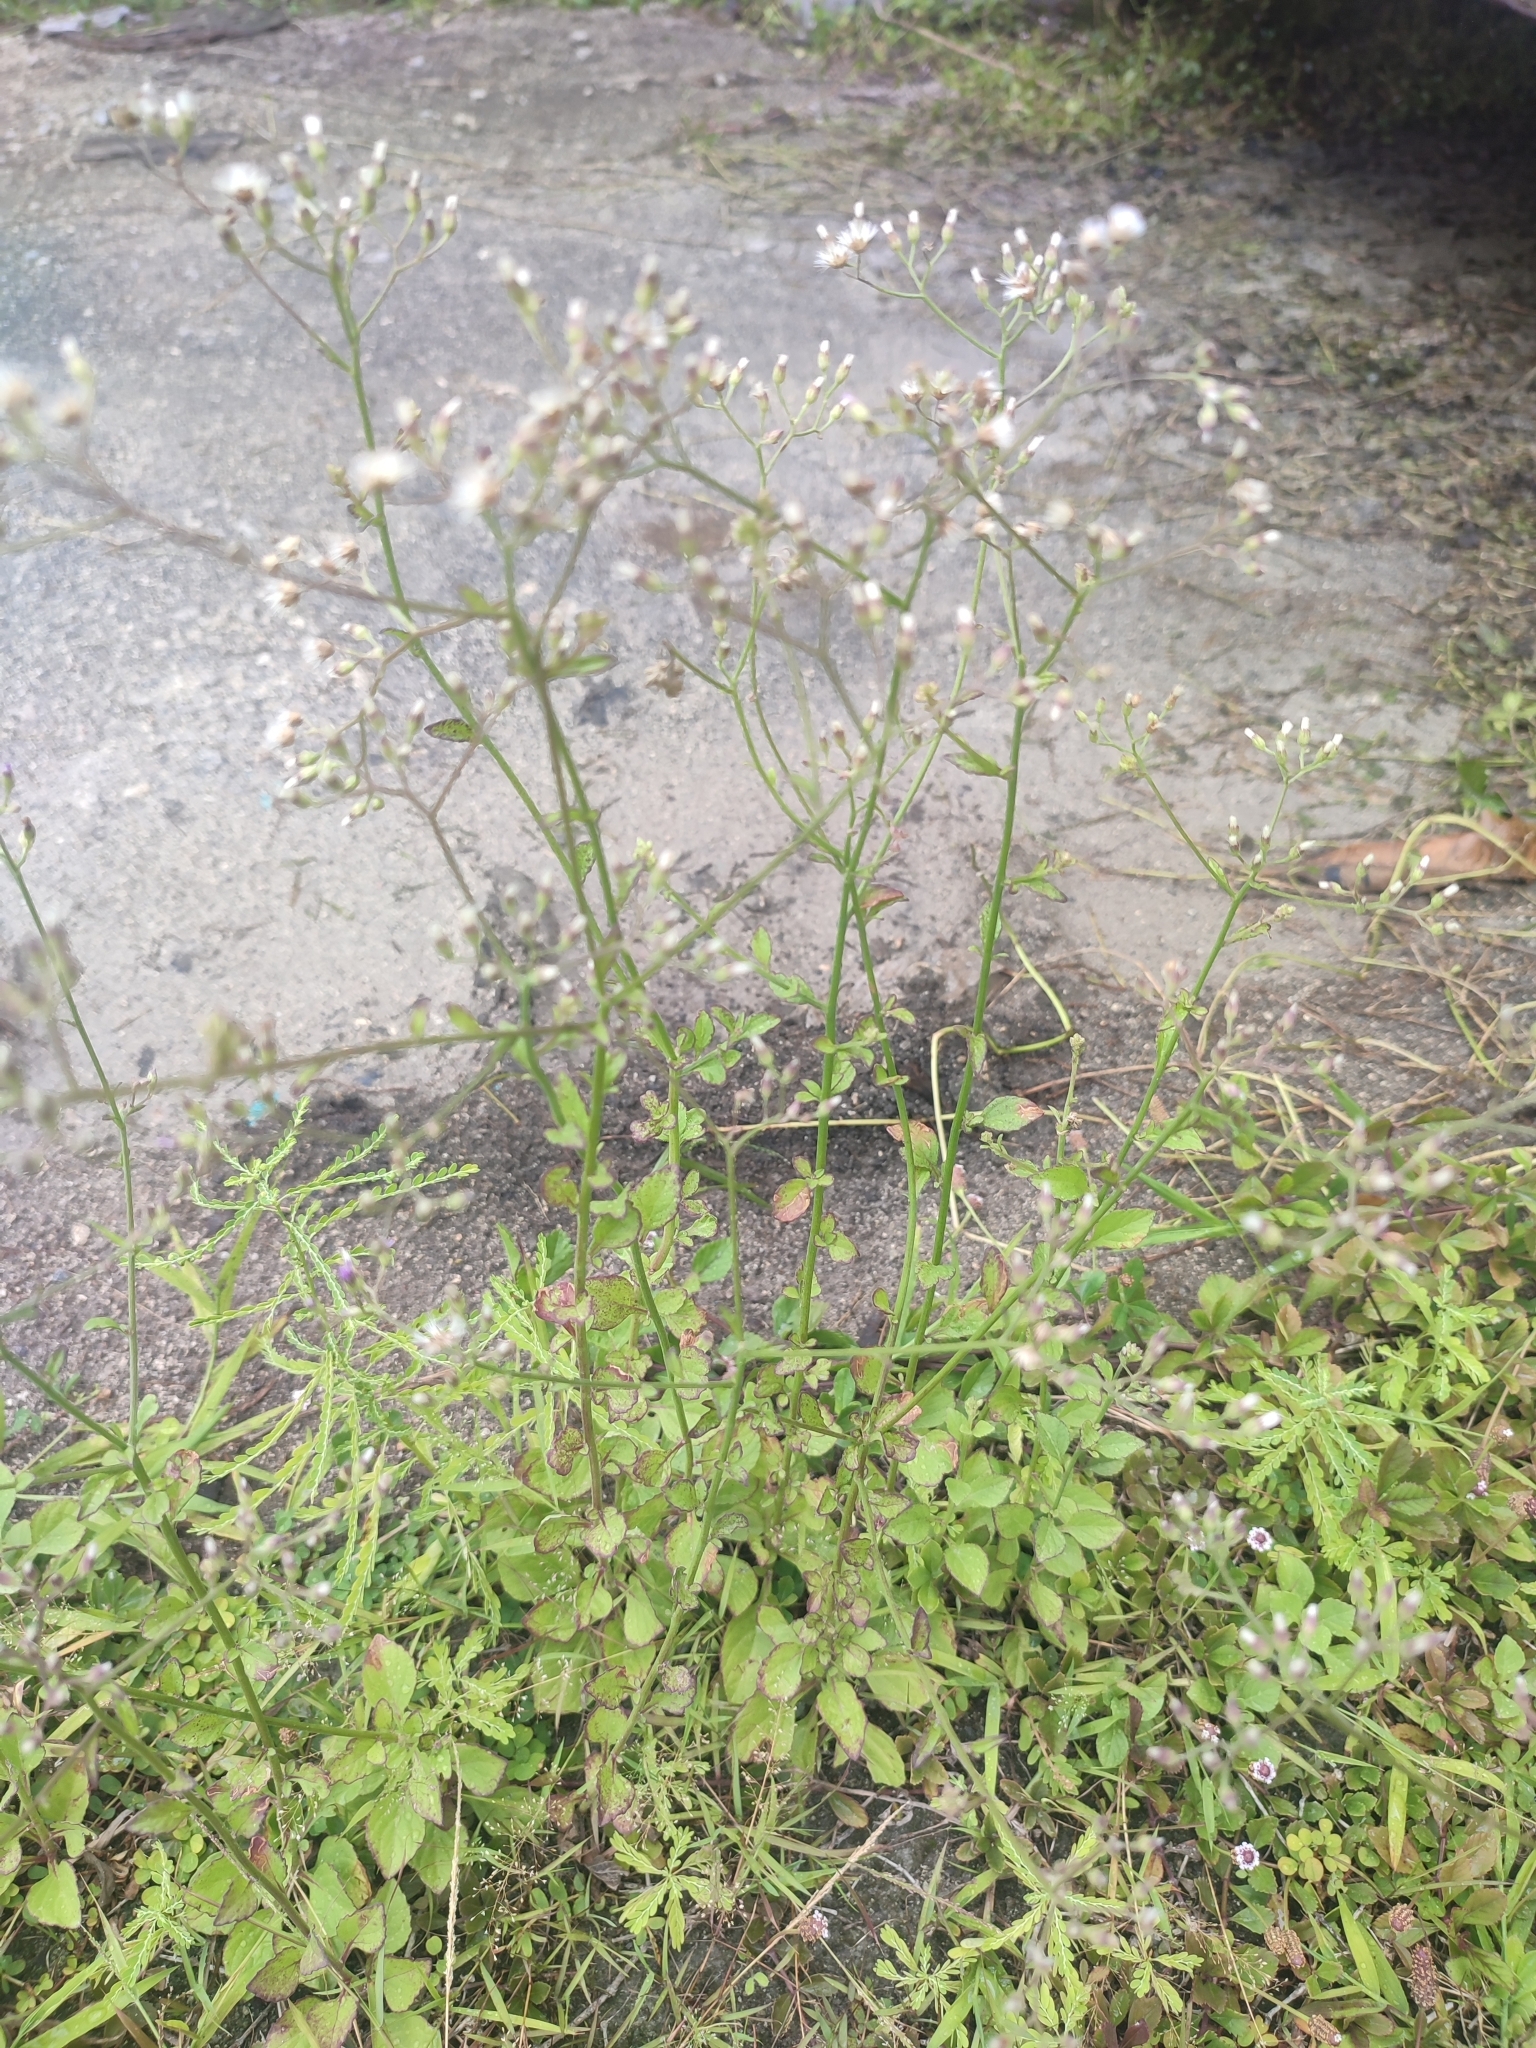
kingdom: Plantae
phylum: Tracheophyta
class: Magnoliopsida
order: Asterales
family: Asteraceae
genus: Cyanthillium
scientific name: Cyanthillium cinereum
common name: Little ironweed
